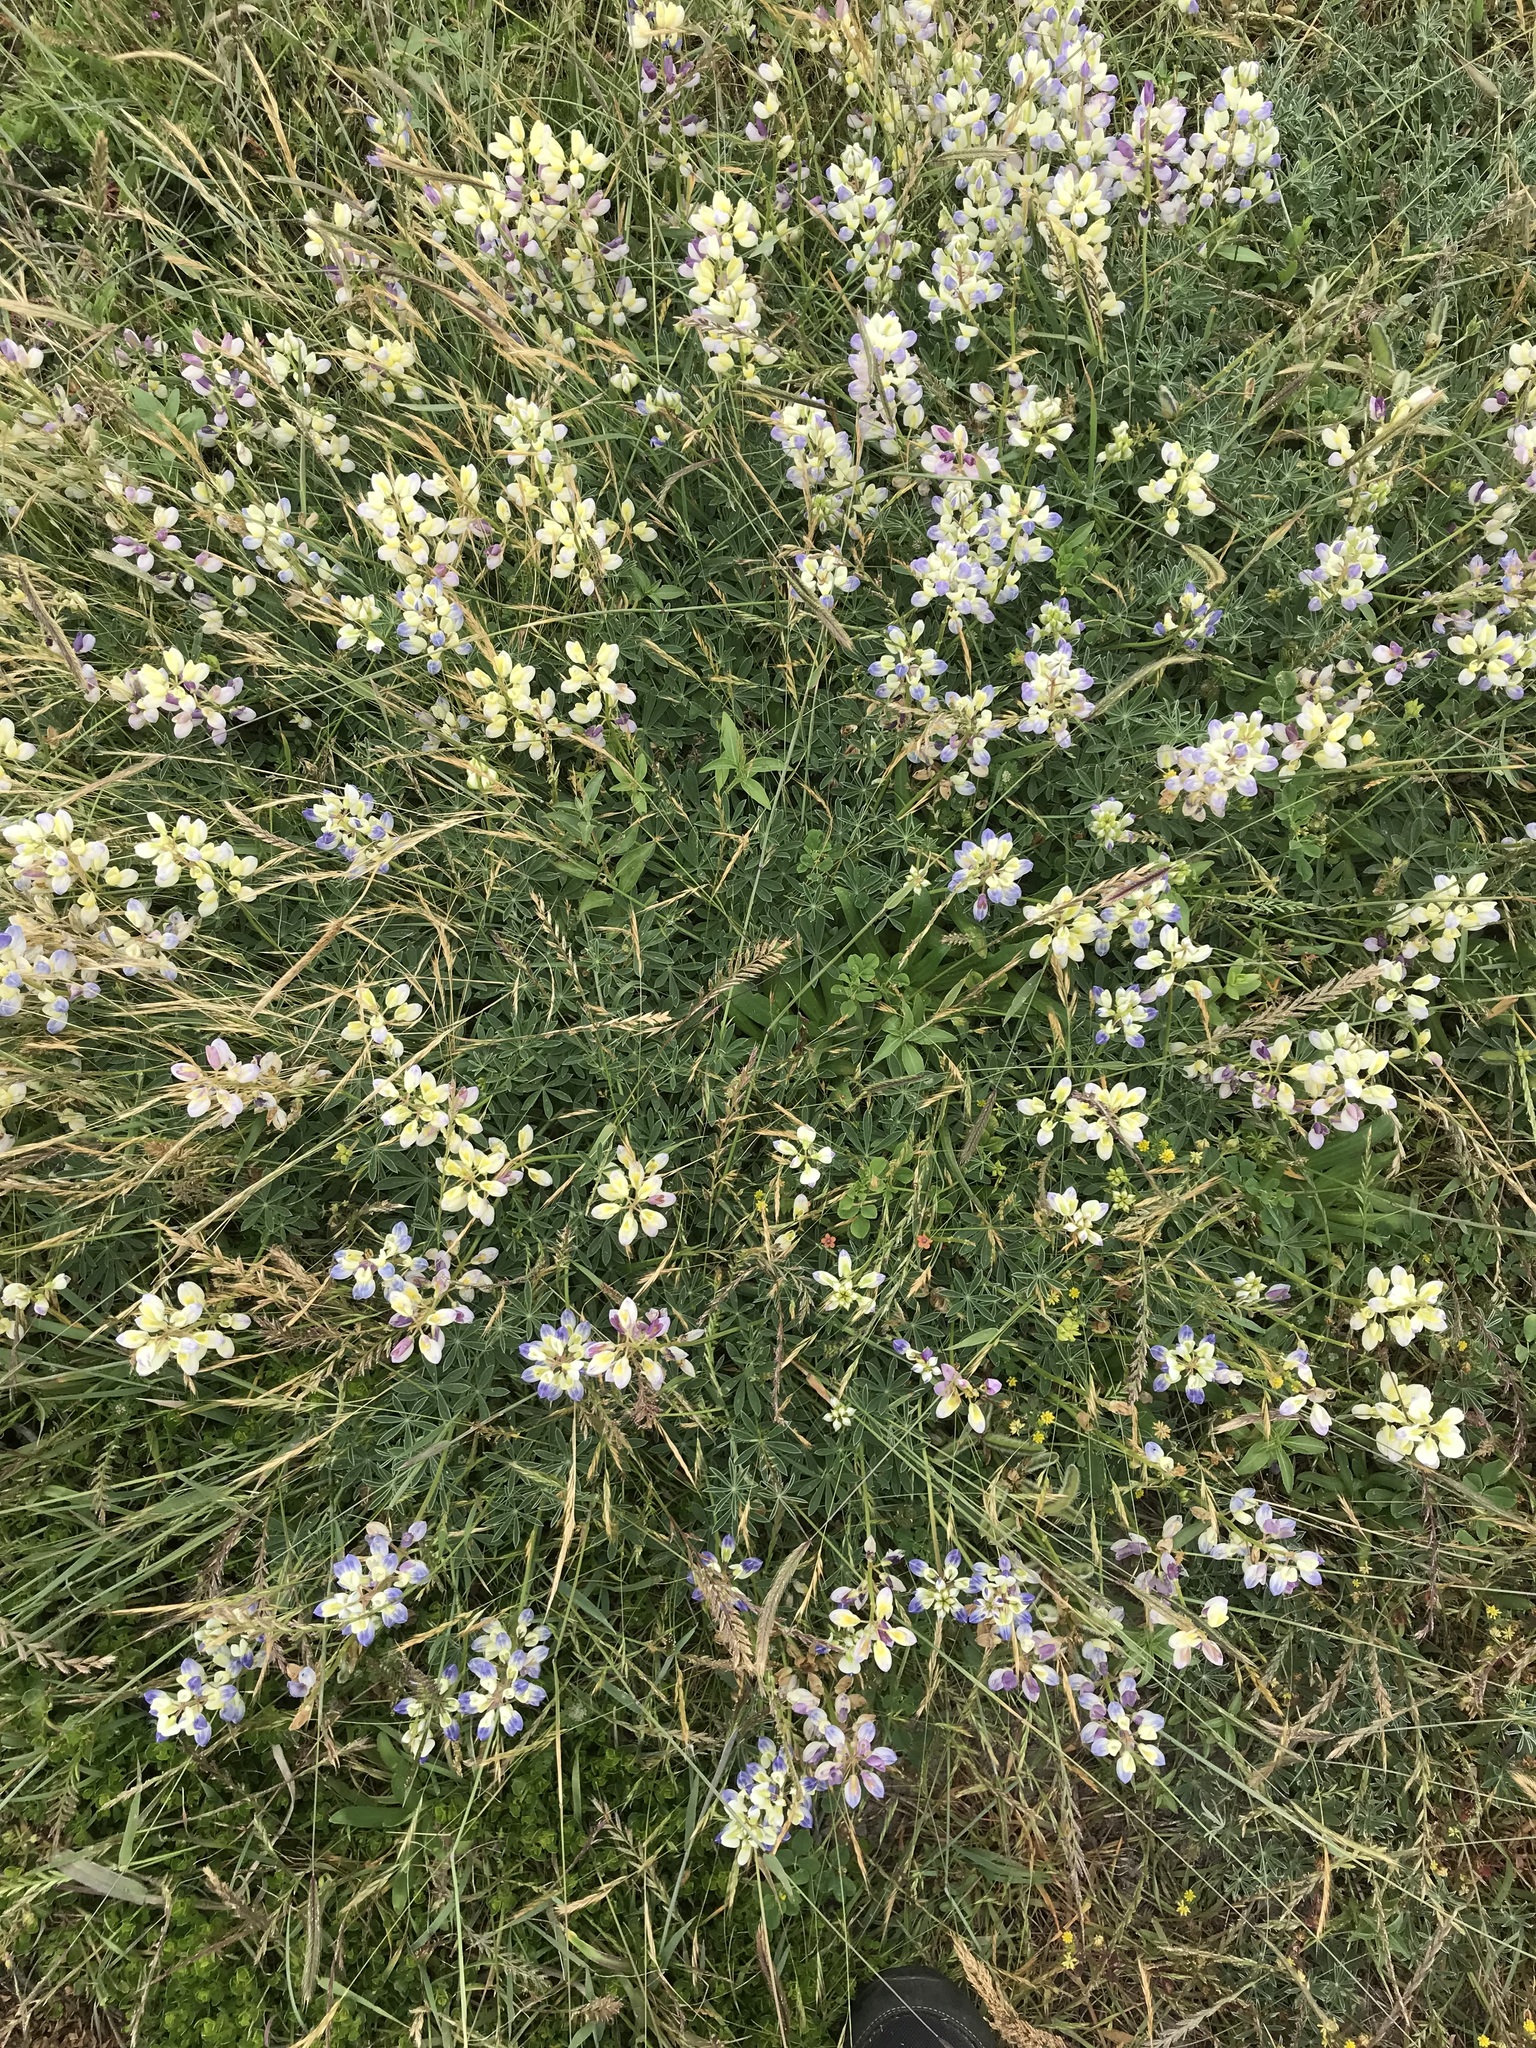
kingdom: Plantae
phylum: Tracheophyta
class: Magnoliopsida
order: Fabales
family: Fabaceae
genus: Lupinus
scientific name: Lupinus variicolor
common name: Lindley's varied lupine
